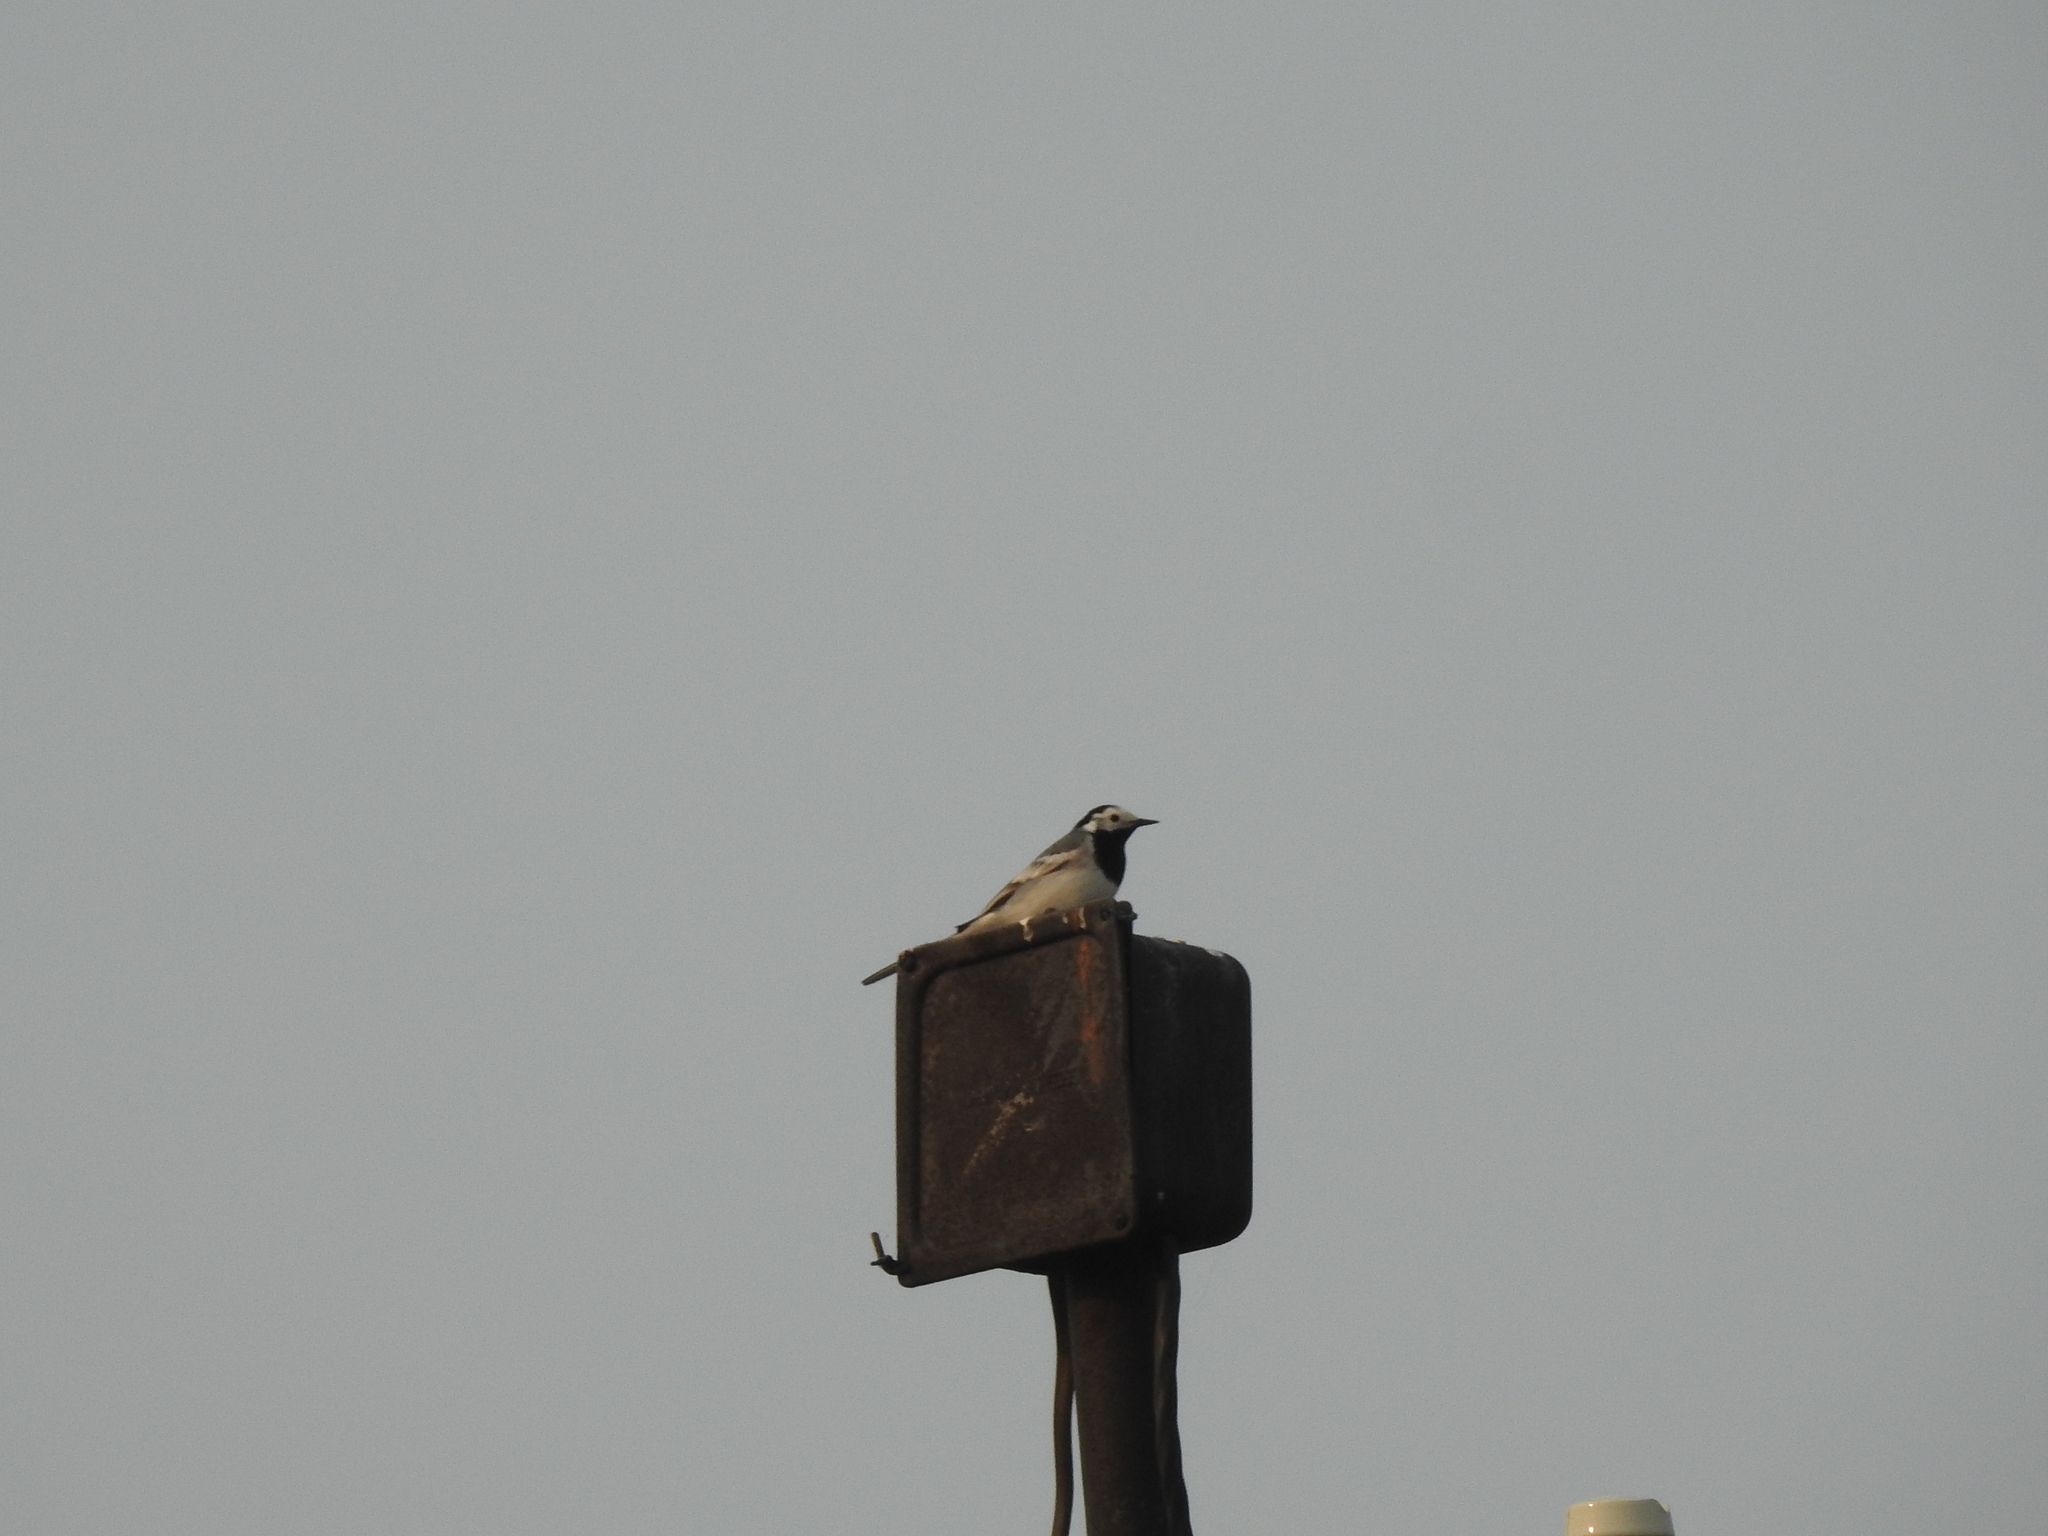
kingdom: Animalia
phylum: Chordata
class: Aves
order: Passeriformes
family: Motacillidae
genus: Motacilla
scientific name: Motacilla alba
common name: White wagtail
